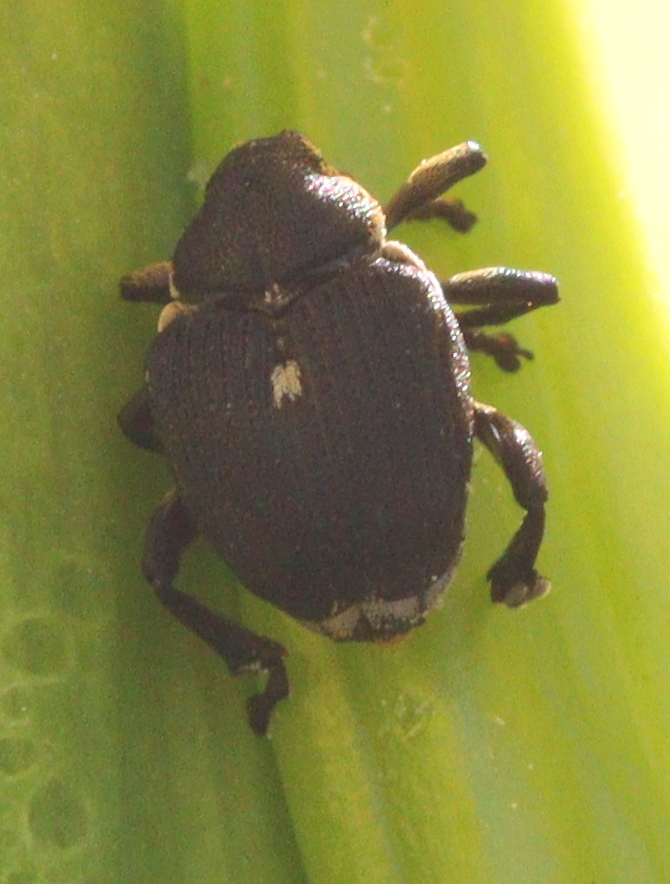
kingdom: Animalia
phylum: Arthropoda
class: Insecta
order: Coleoptera
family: Curculionidae
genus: Mononychus
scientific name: Mononychus punctumalbum
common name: Iris weevil
